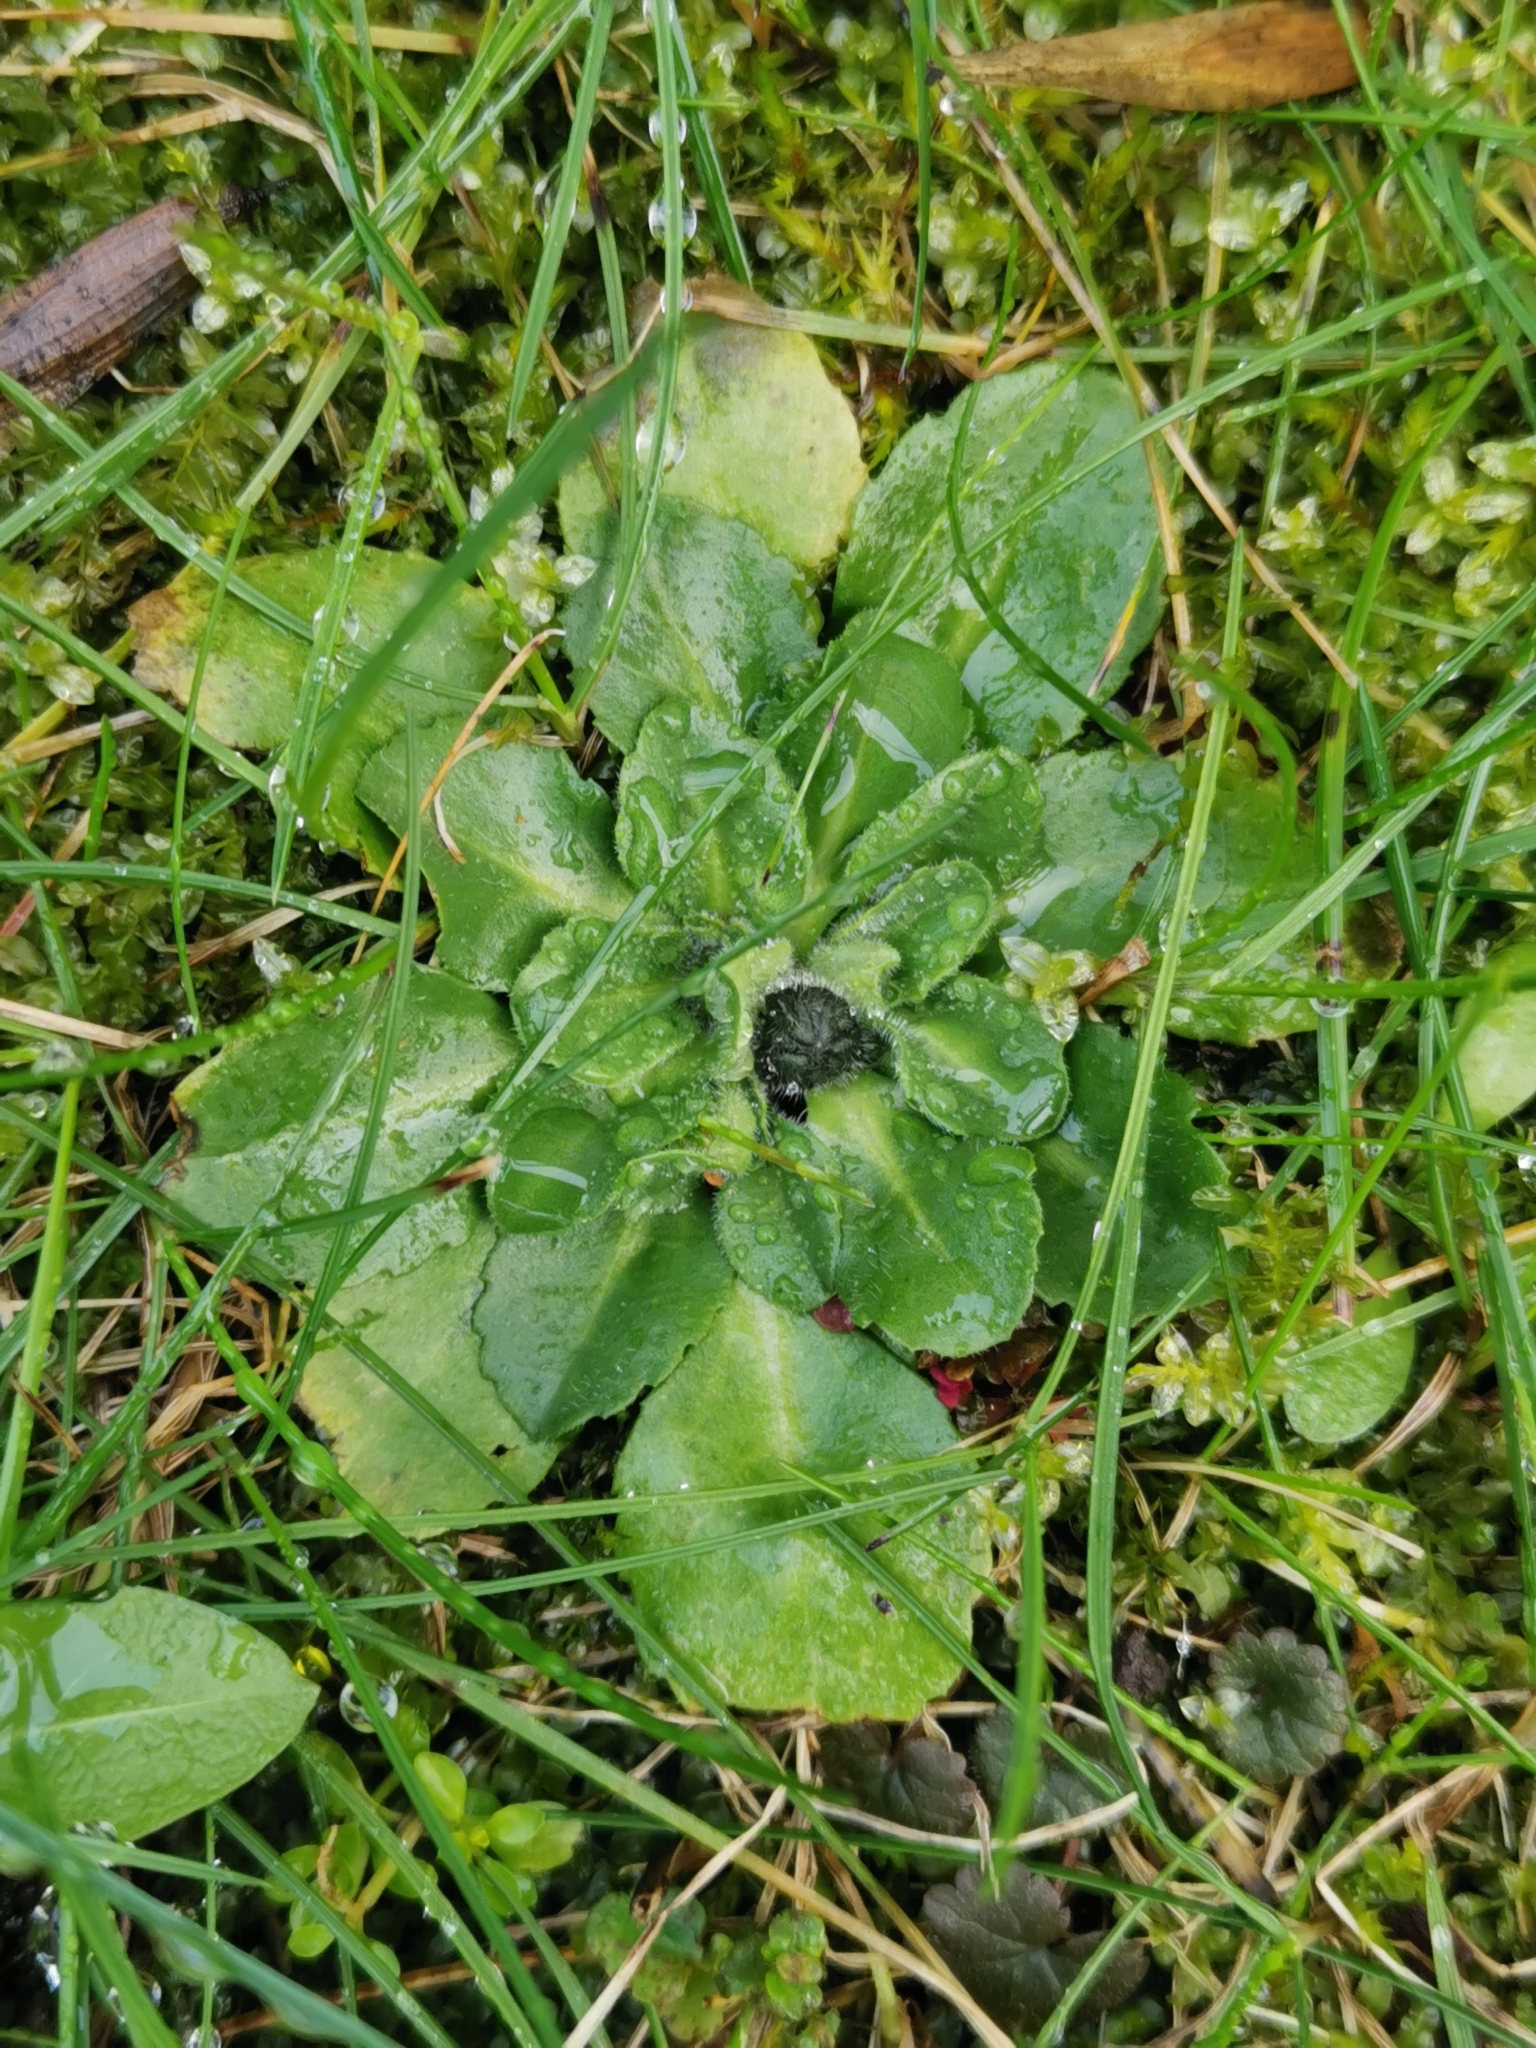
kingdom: Plantae
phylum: Tracheophyta
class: Magnoliopsida
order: Asterales
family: Asteraceae
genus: Bellis
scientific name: Bellis perennis
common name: Lawndaisy
